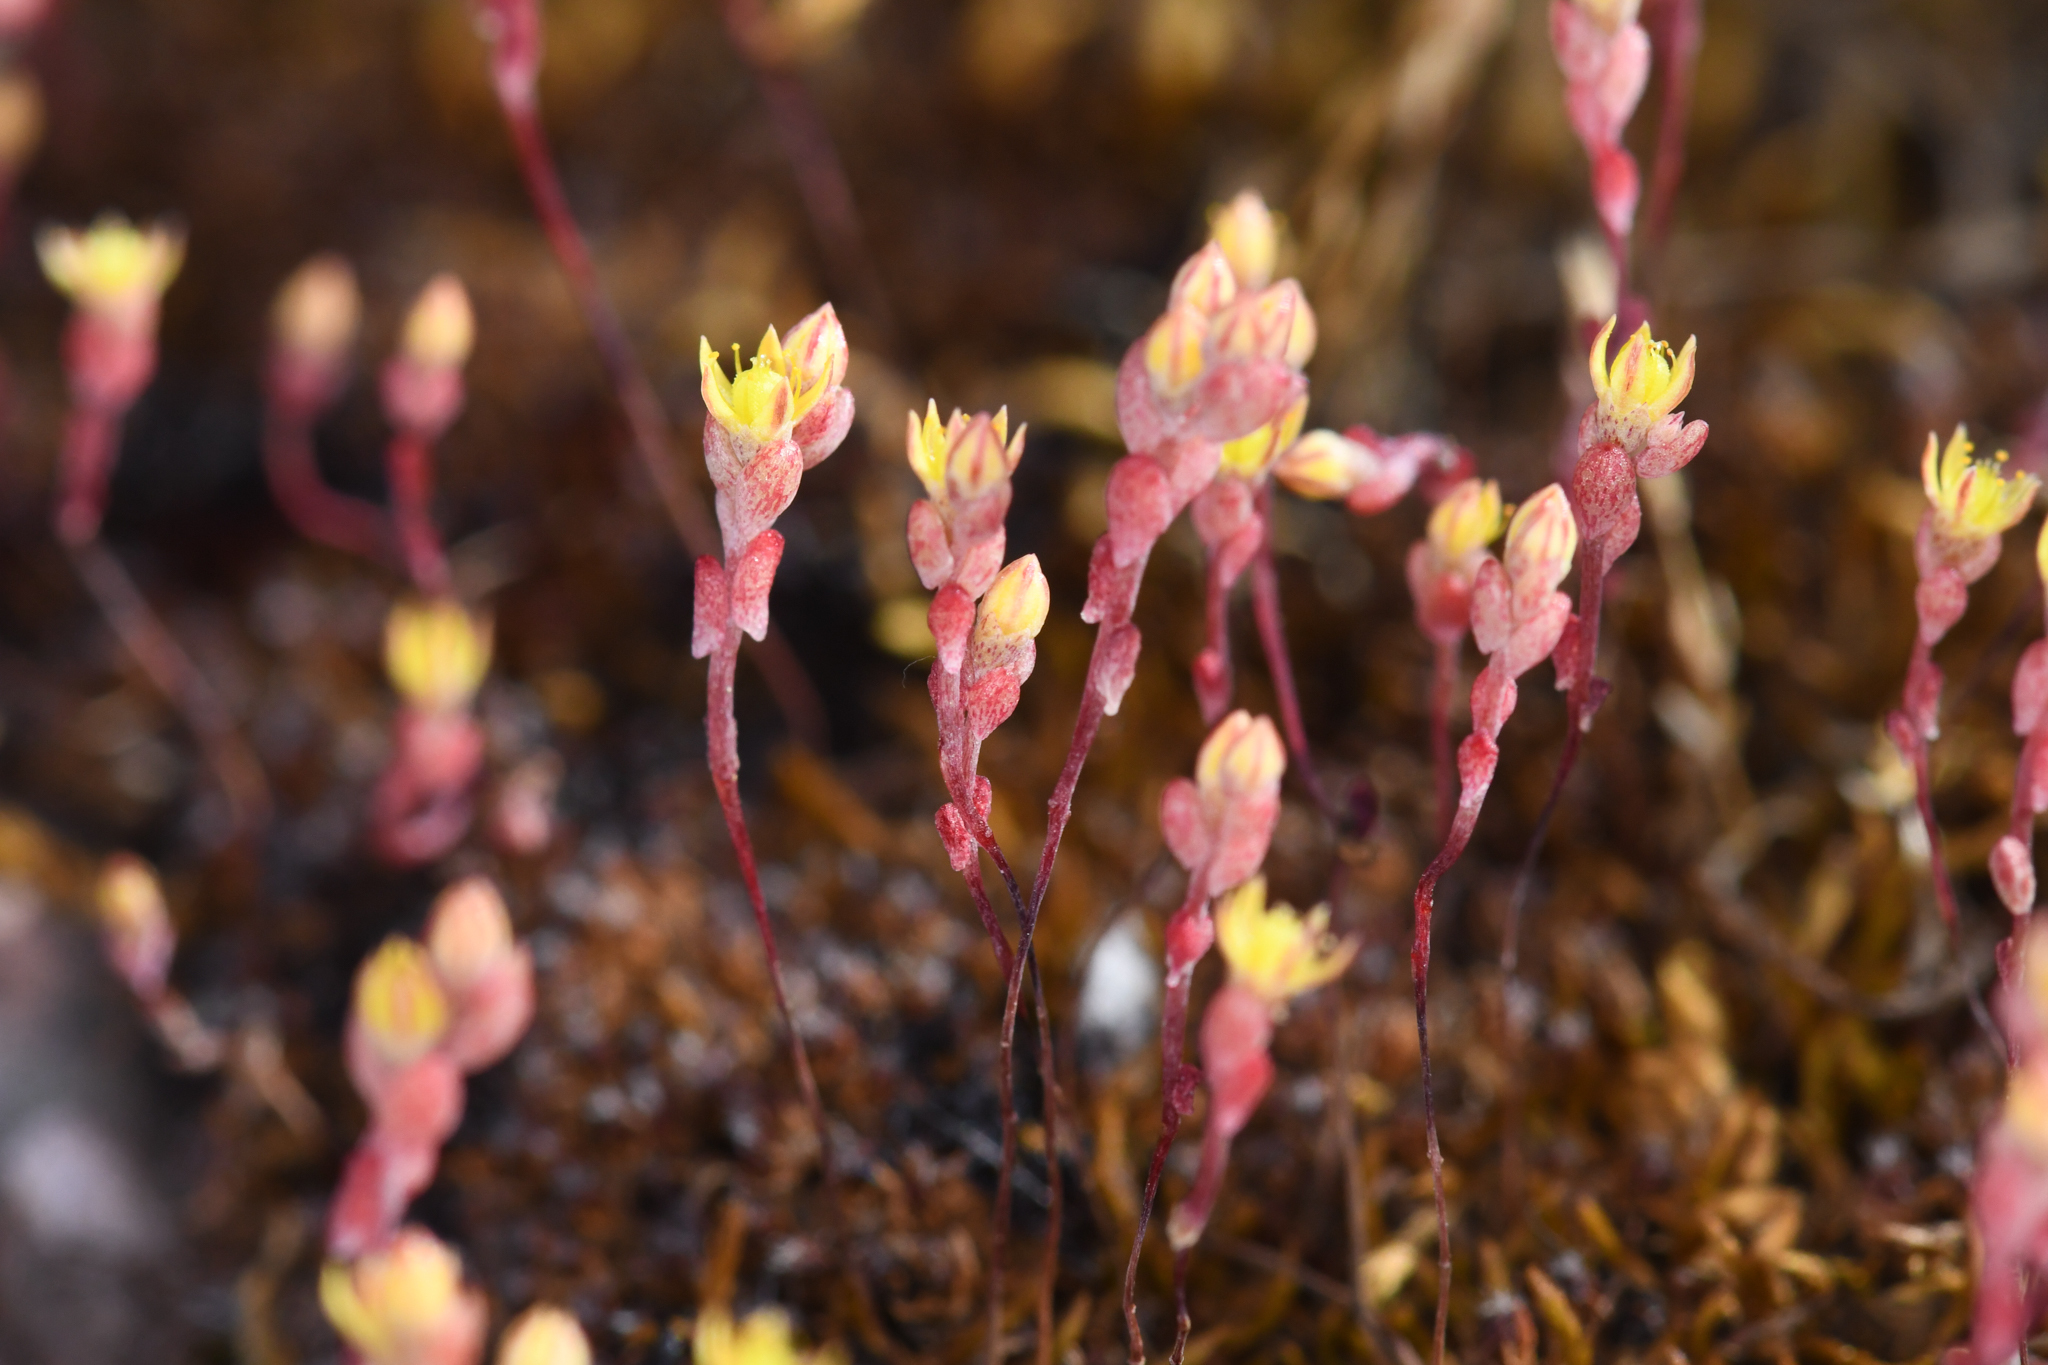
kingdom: Plantae
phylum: Tracheophyta
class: Magnoliopsida
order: Saxifragales
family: Crassulaceae
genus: Sedella
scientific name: Sedella pentandra
